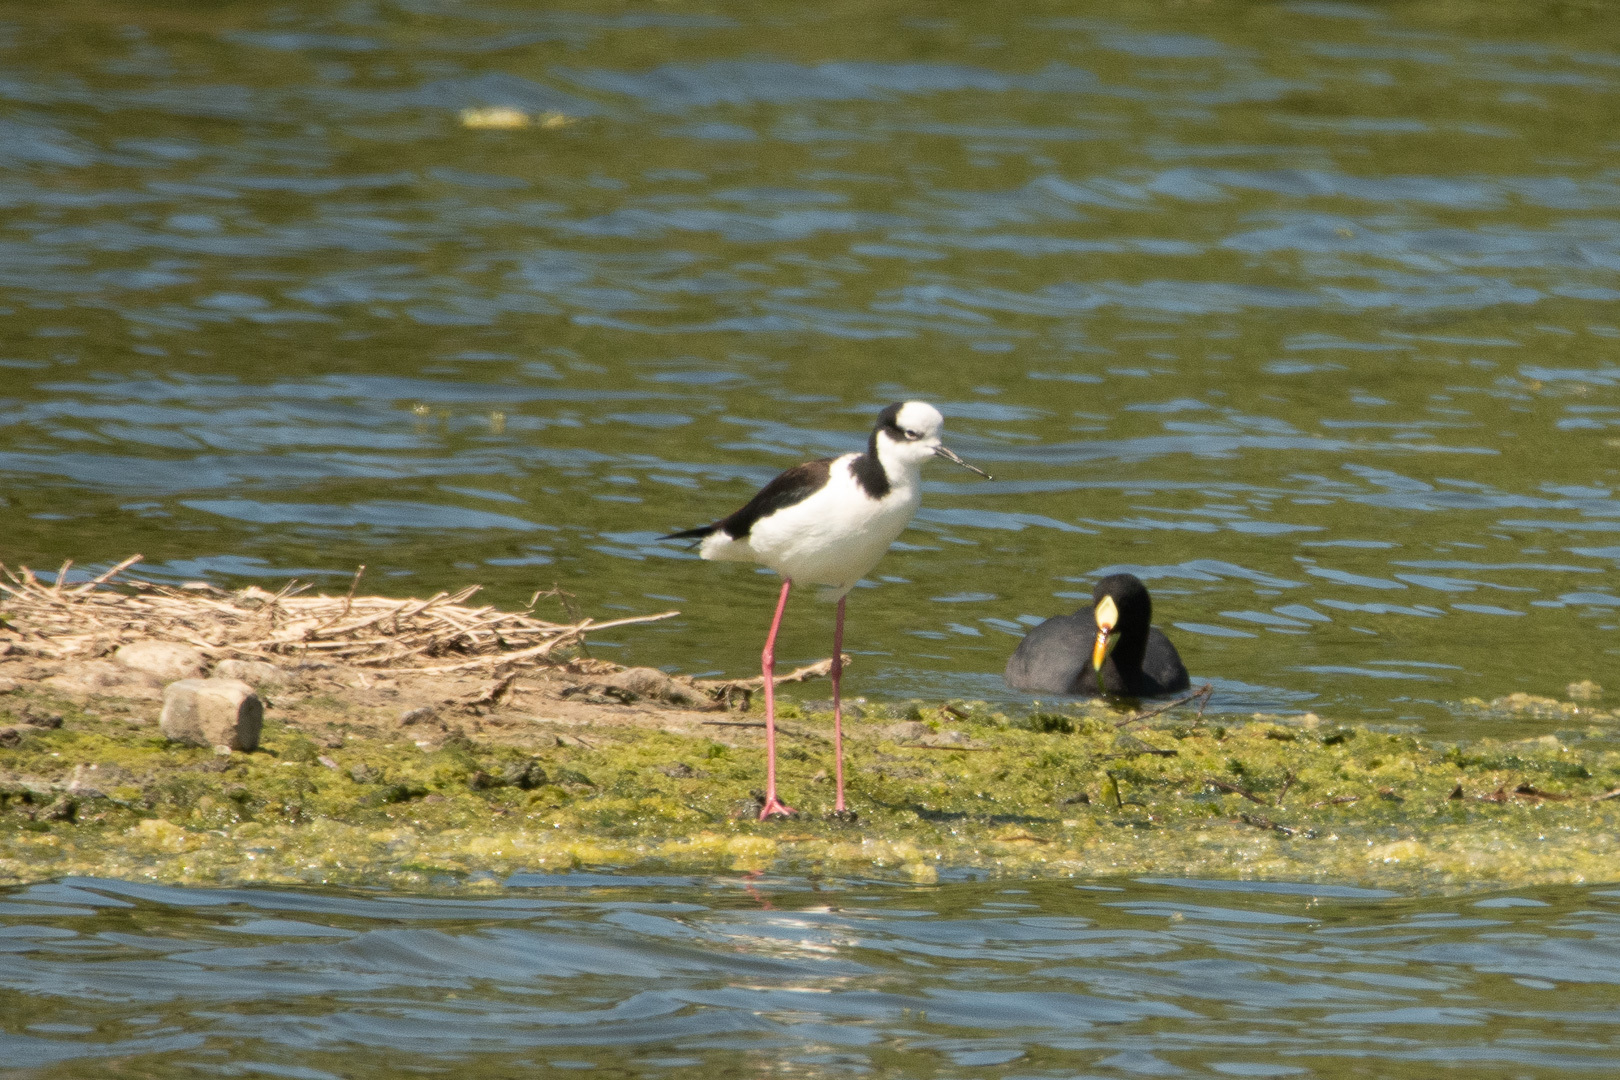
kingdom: Animalia
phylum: Chordata
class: Aves
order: Charadriiformes
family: Recurvirostridae
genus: Himantopus
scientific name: Himantopus mexicanus
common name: Black-necked stilt
